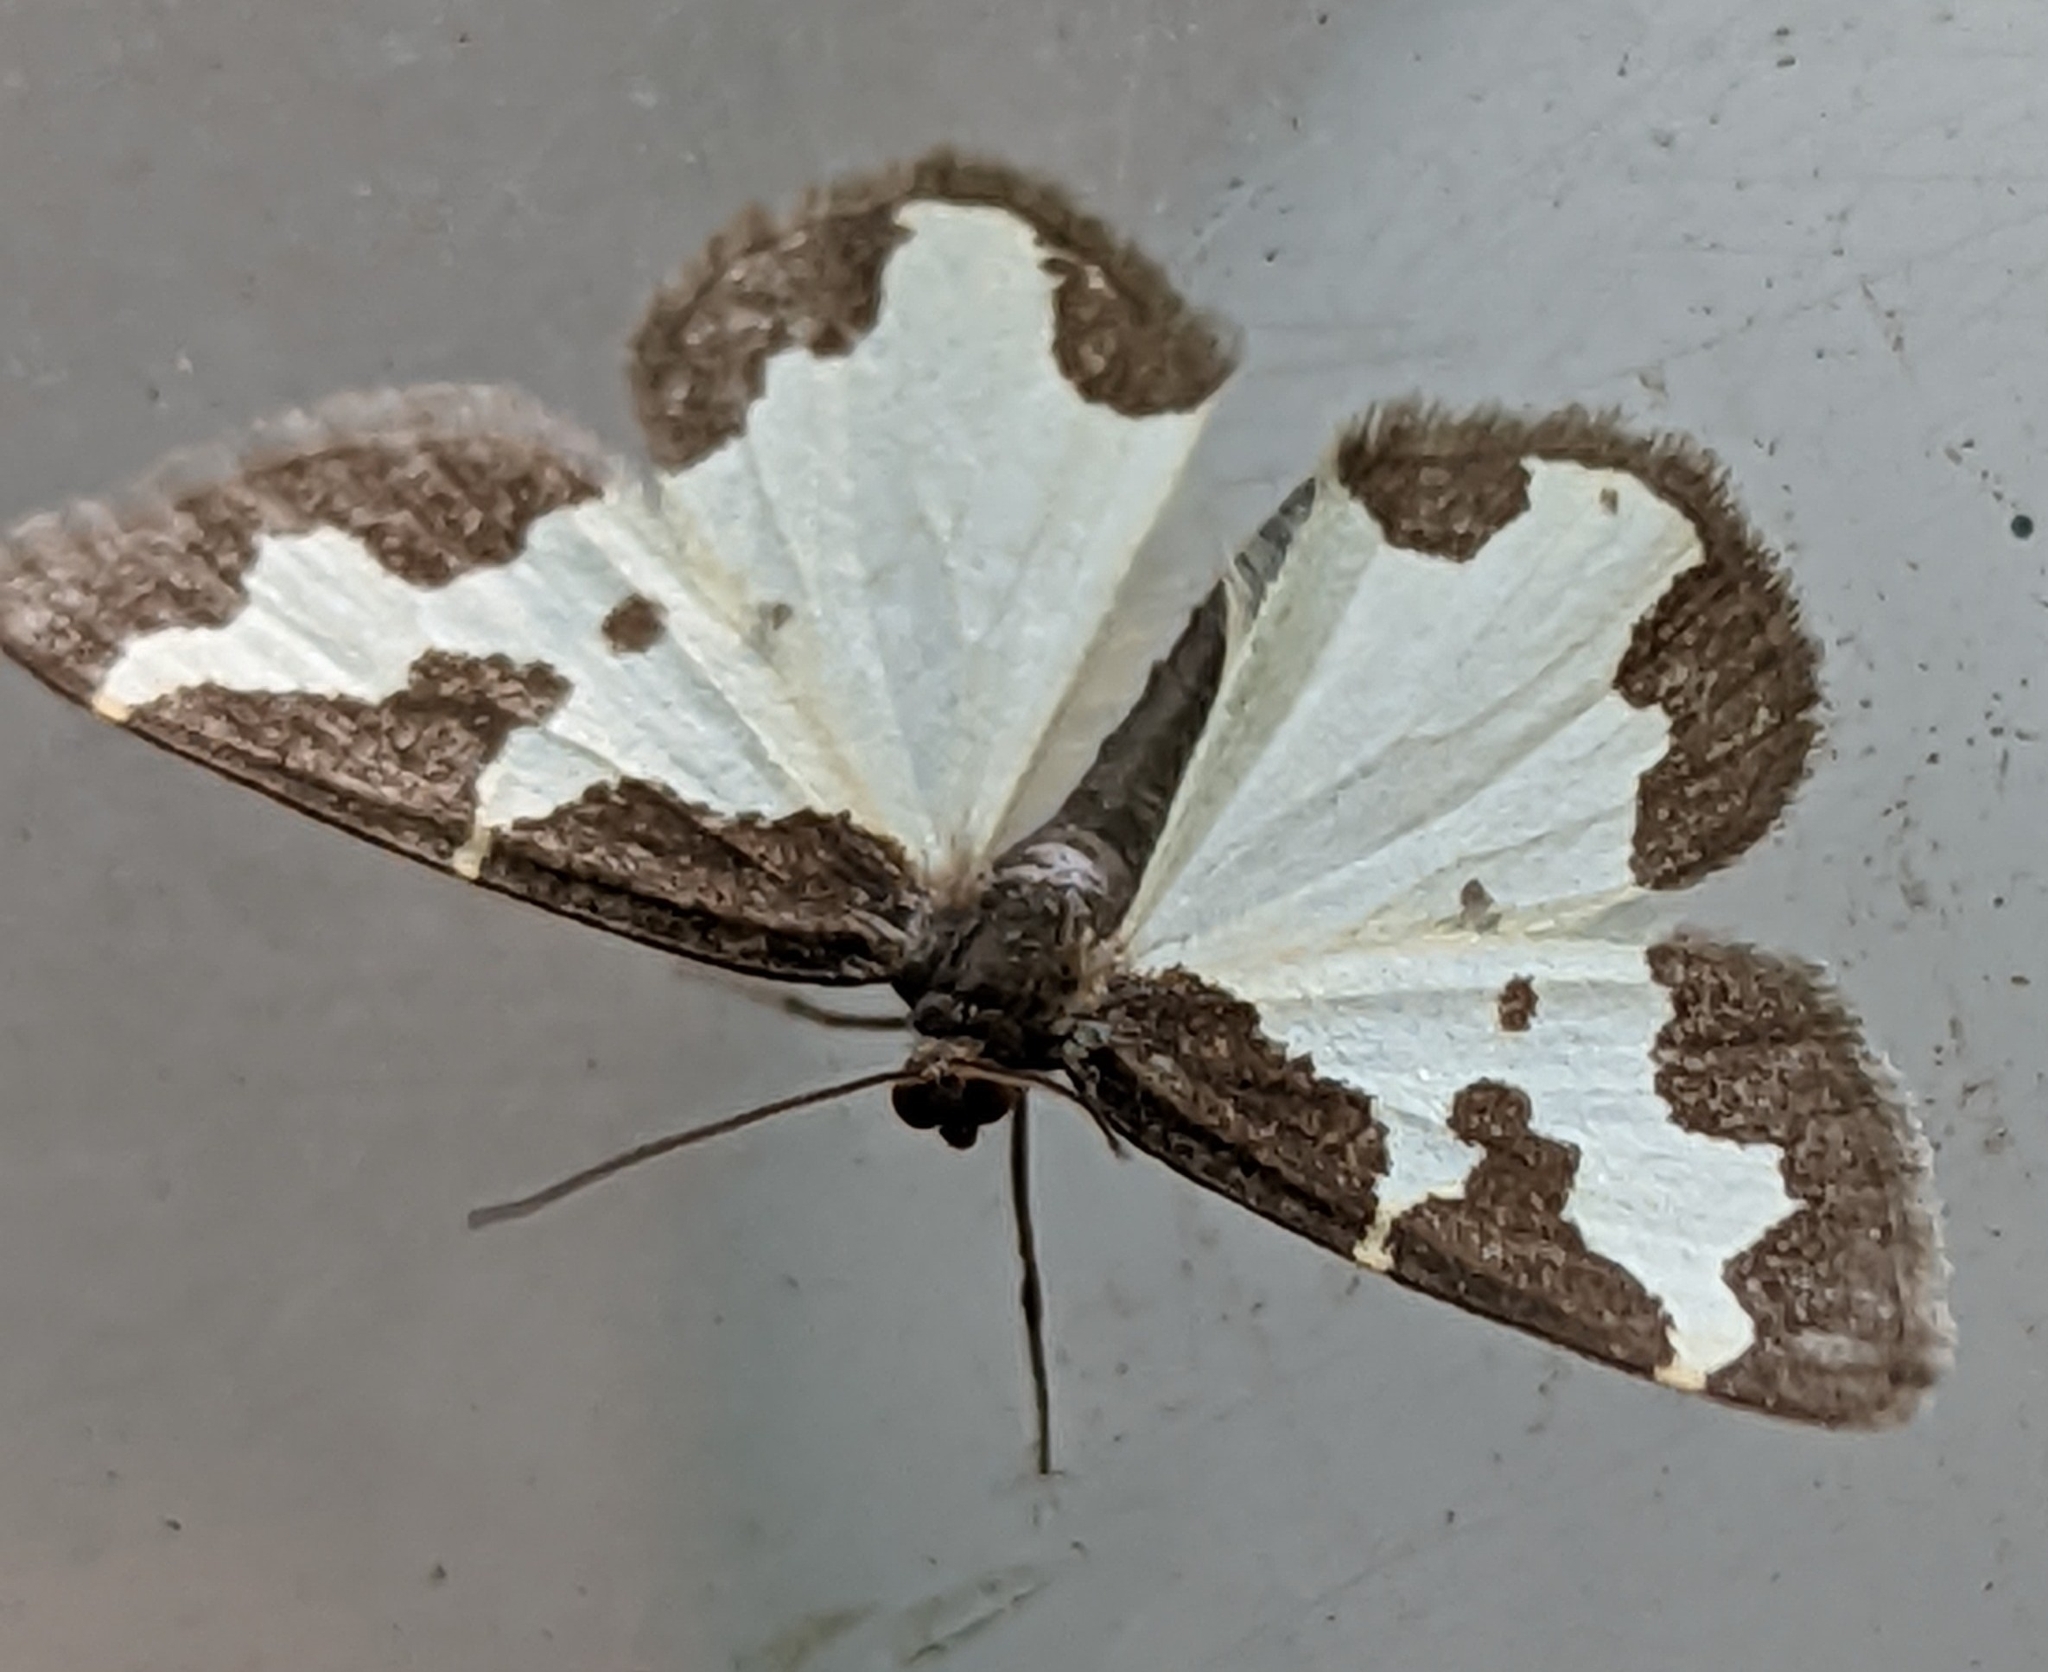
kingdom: Animalia
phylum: Arthropoda
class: Insecta
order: Lepidoptera
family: Geometridae
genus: Lomaspilis
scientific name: Lomaspilis marginata
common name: Clouded border
